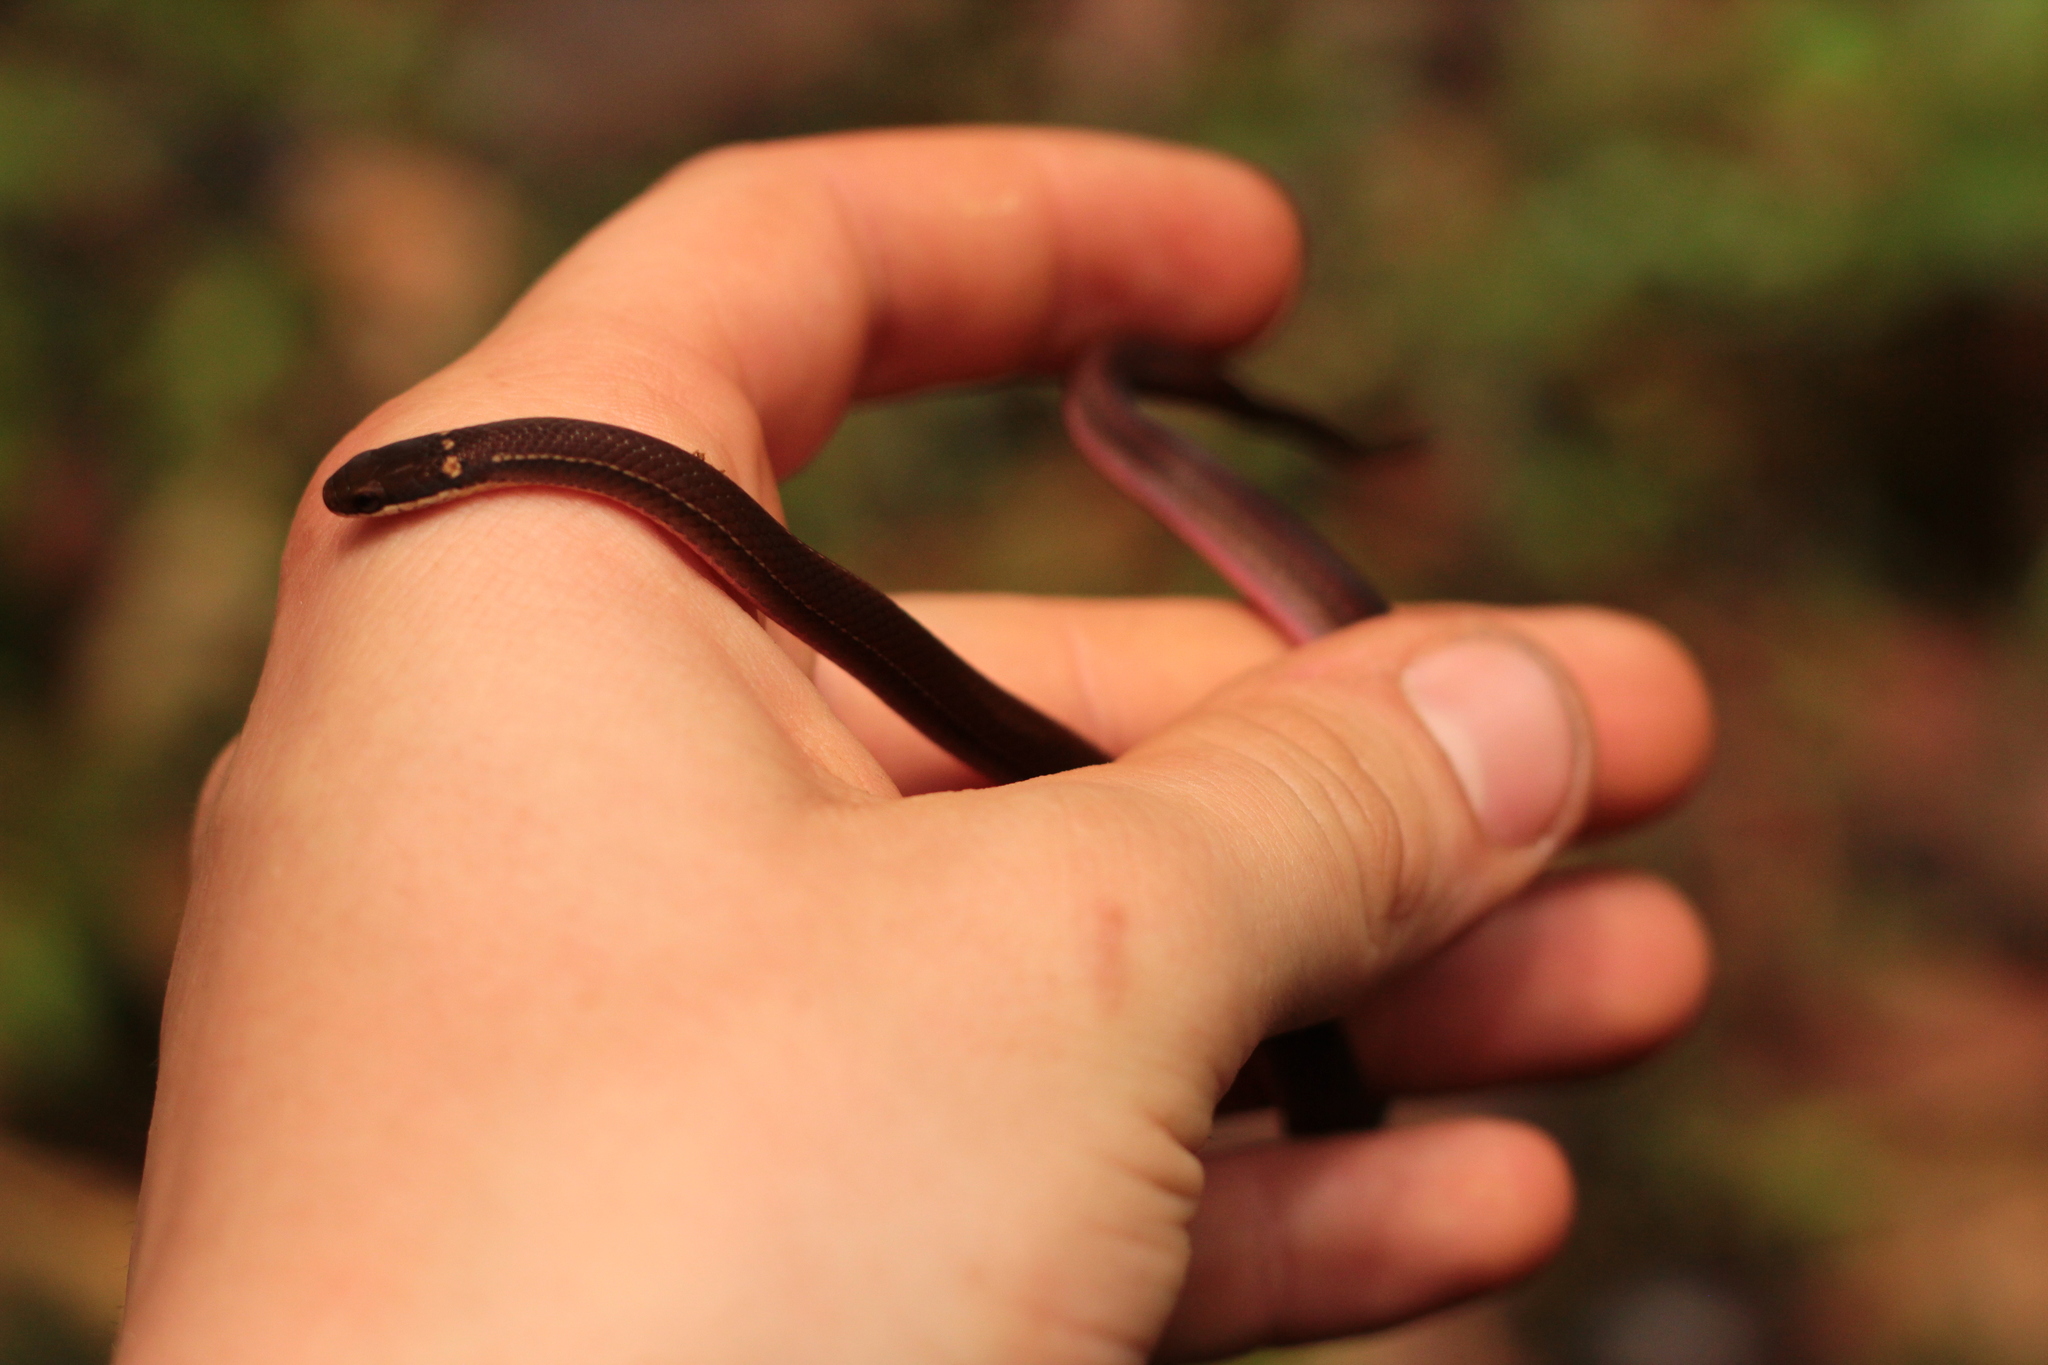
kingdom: Animalia
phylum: Chordata
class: Squamata
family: Pseudoxyrhophiidae
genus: Liopholidophis
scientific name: Liopholidophis rhadinaea
